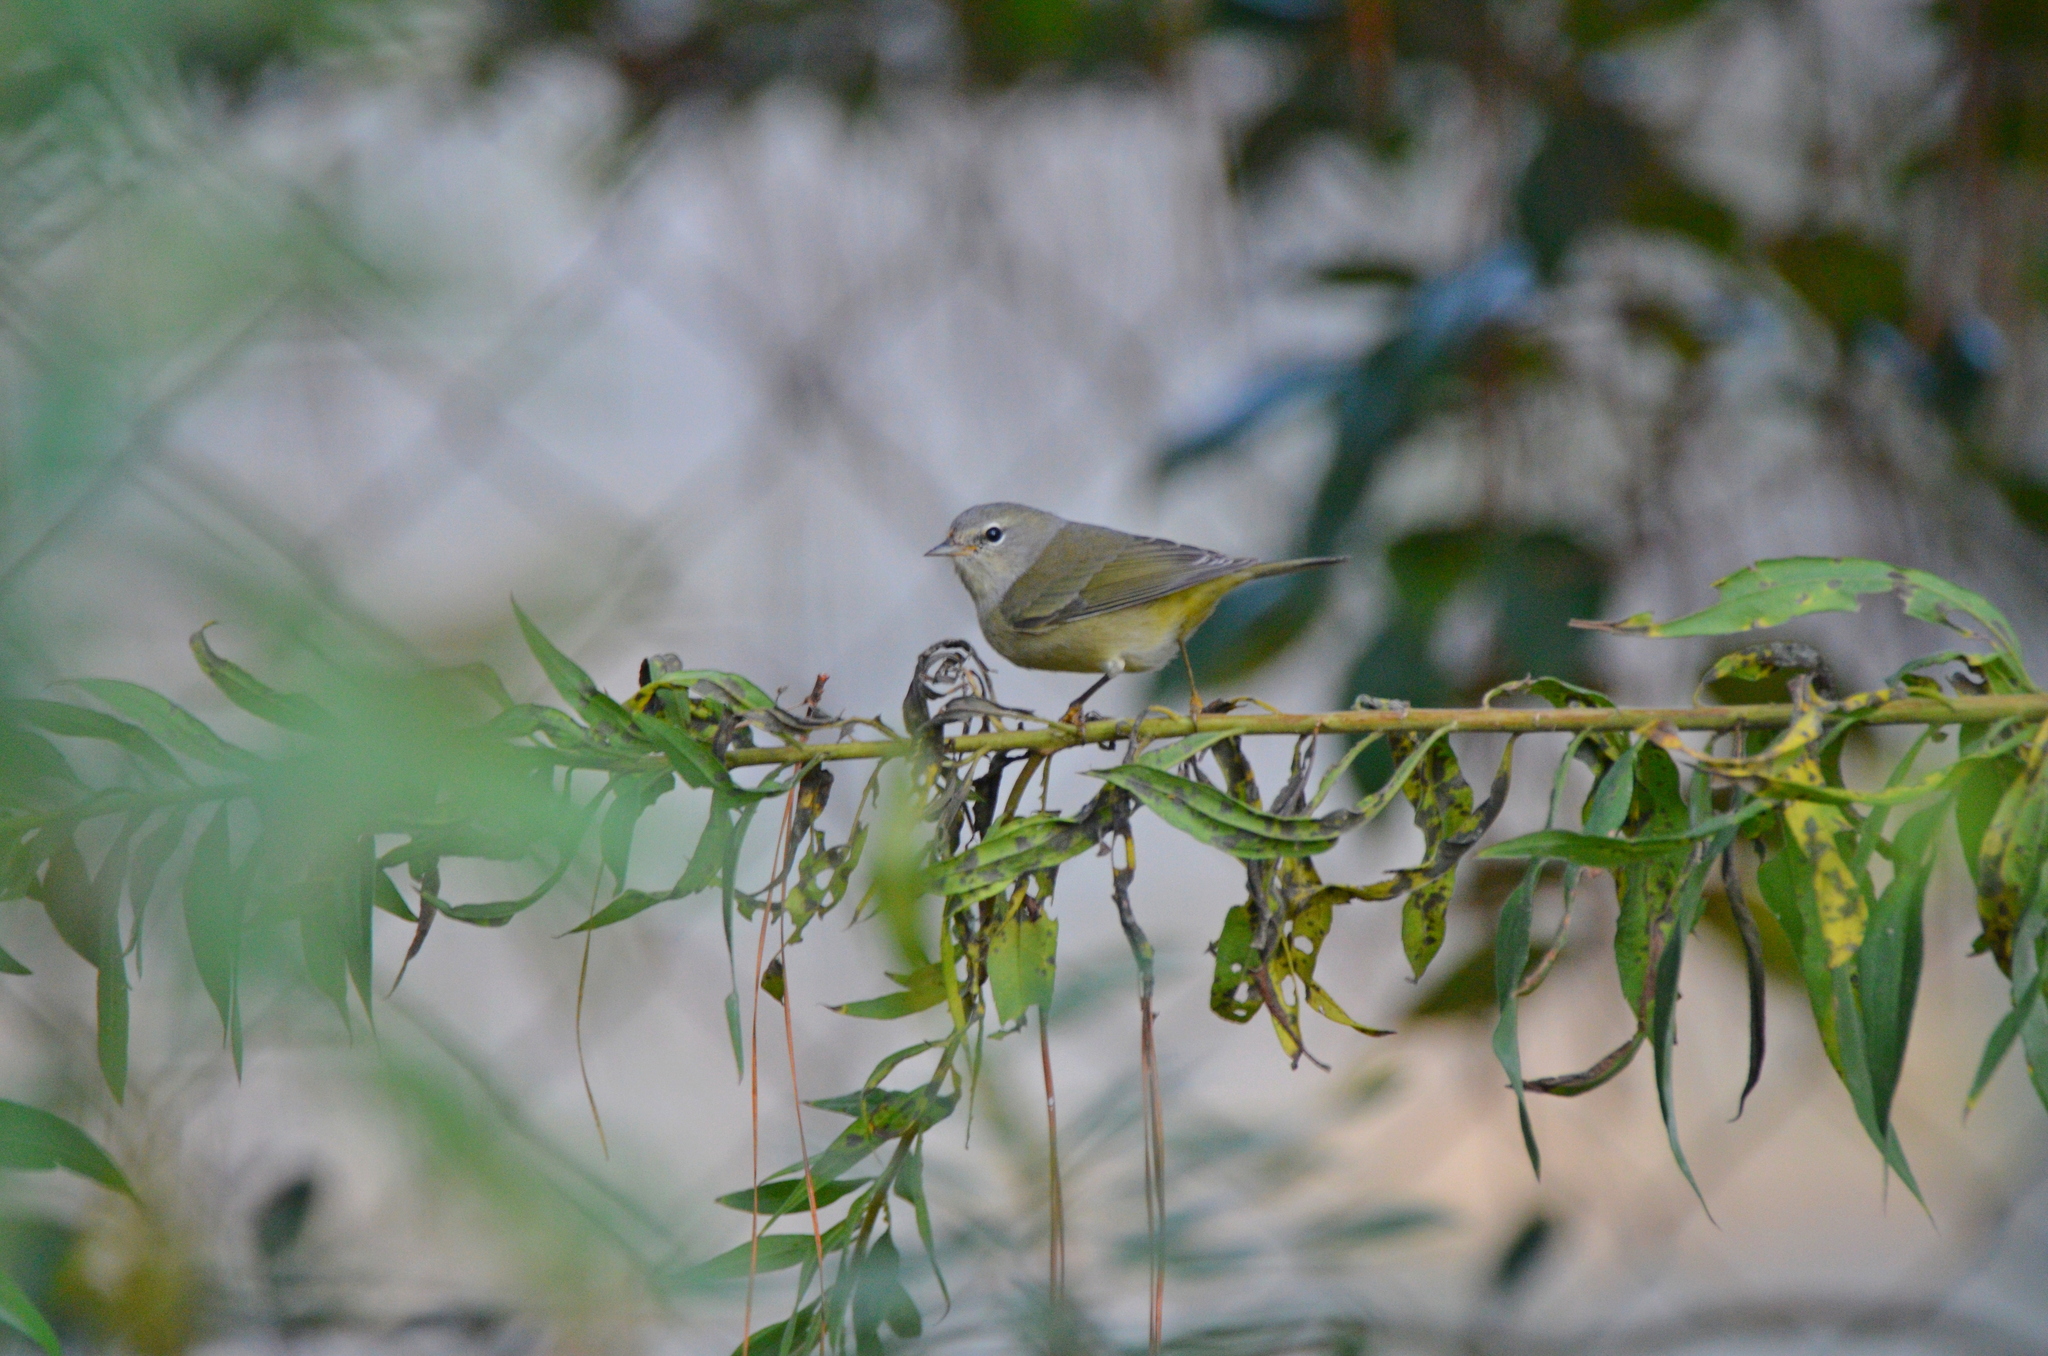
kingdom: Animalia
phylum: Chordata
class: Aves
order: Passeriformes
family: Parulidae
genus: Leiothlypis
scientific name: Leiothlypis celata
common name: Orange-crowned warbler
